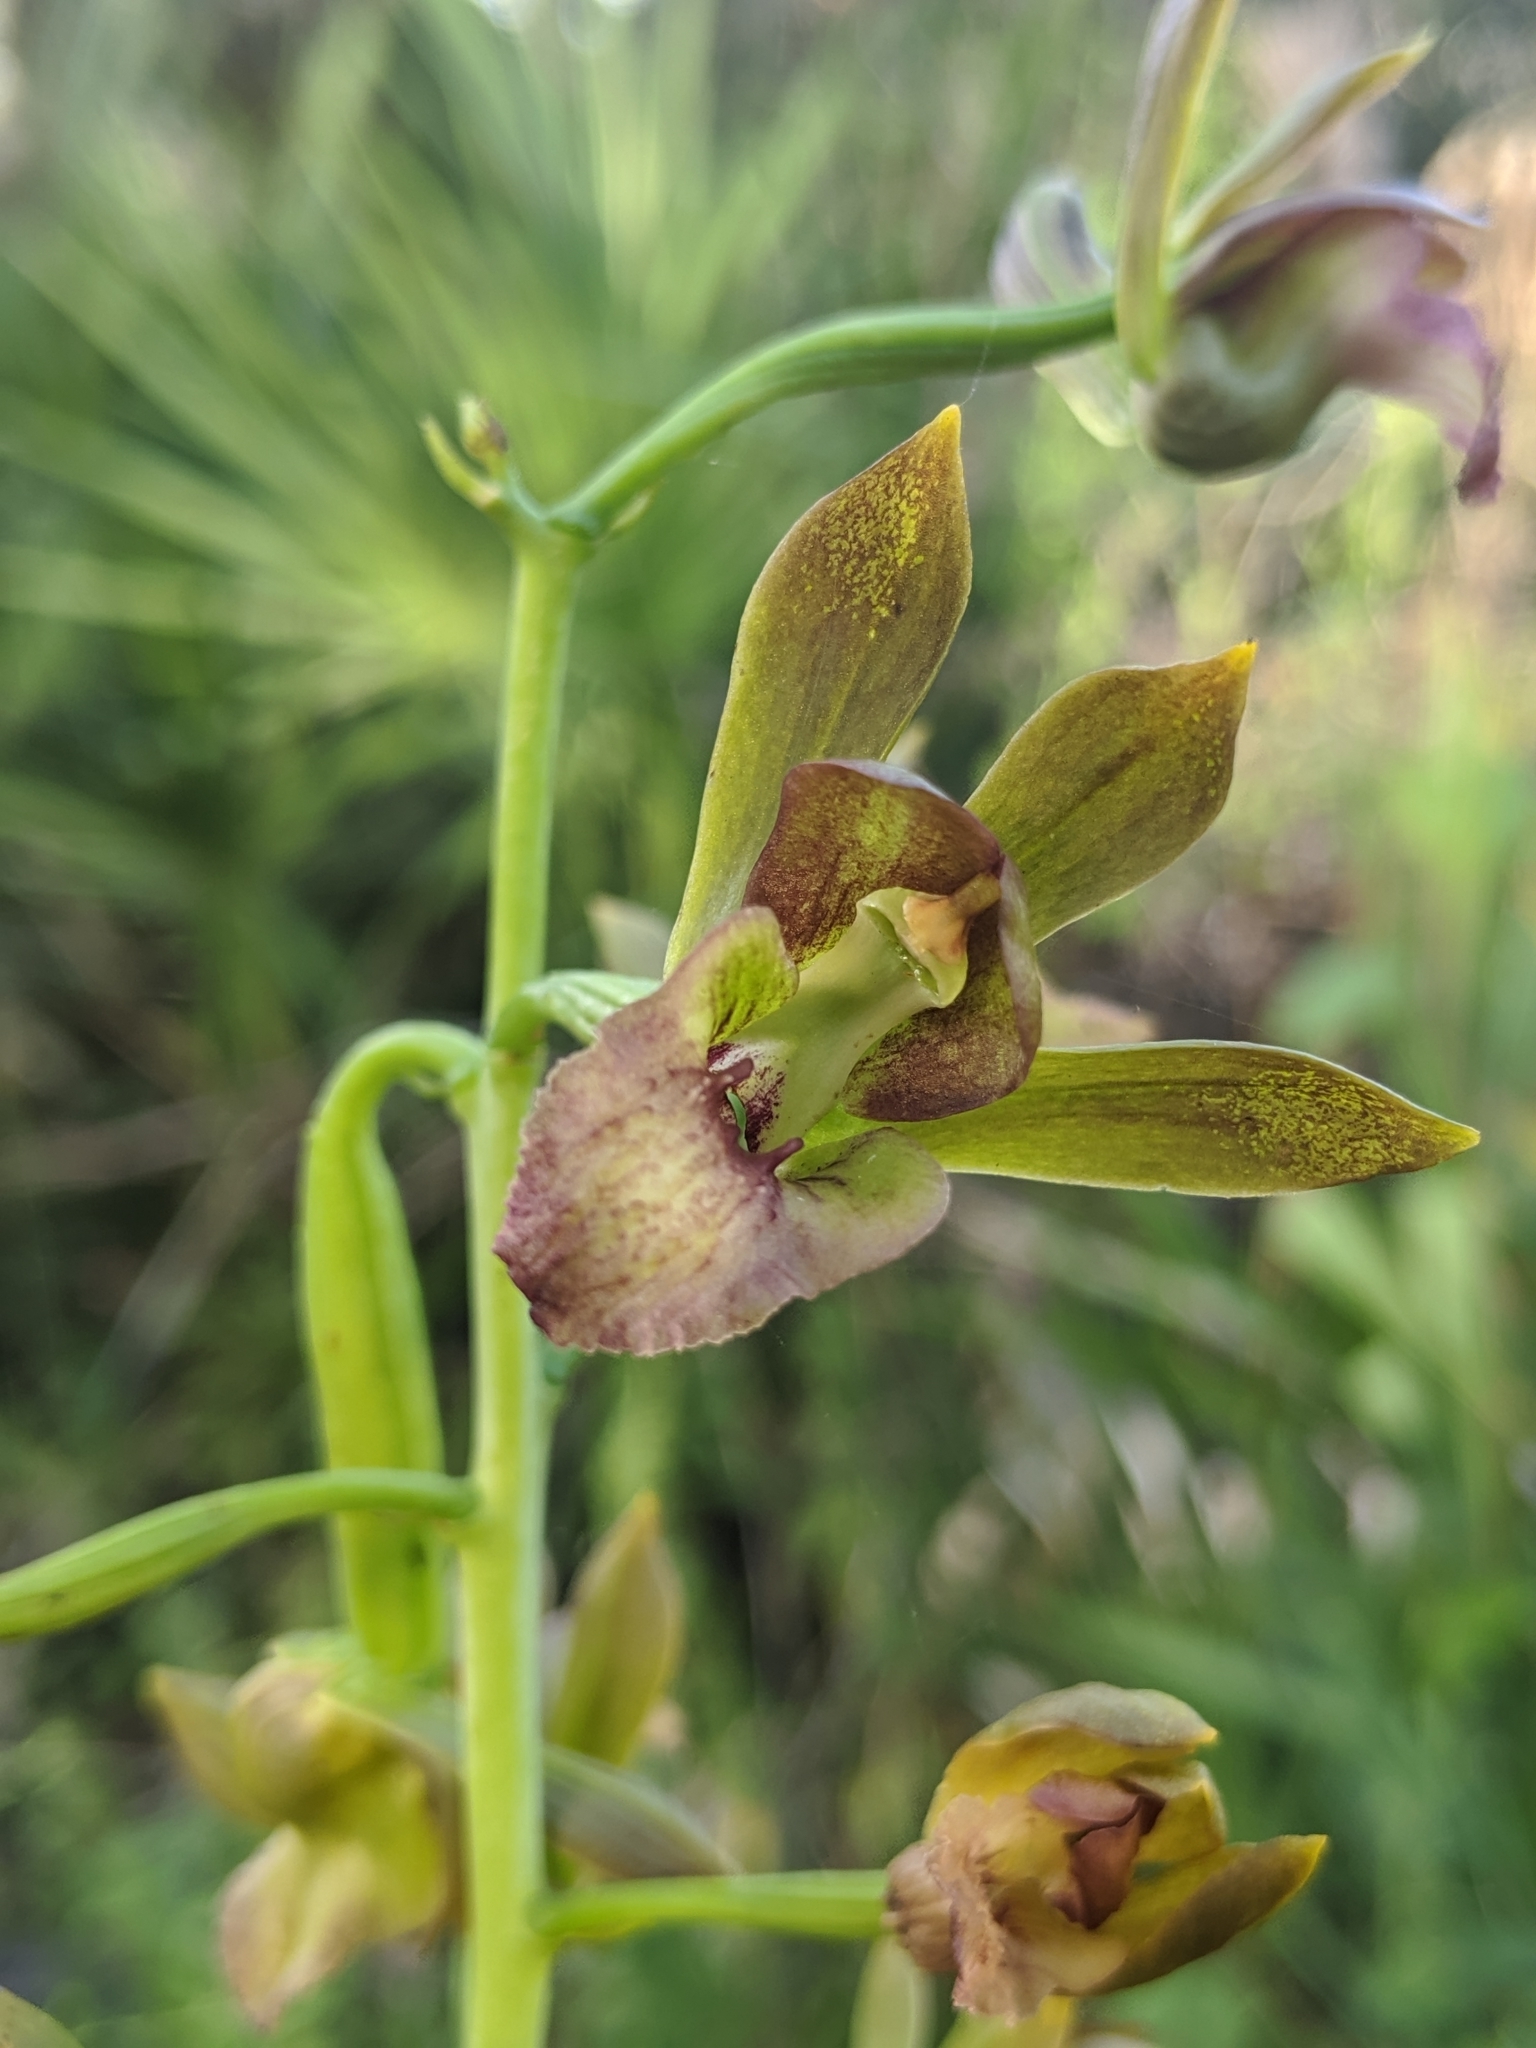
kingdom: Plantae
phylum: Tracheophyta
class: Liliopsida
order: Asparagales
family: Orchidaceae
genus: Eulophia
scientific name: Eulophia alta
